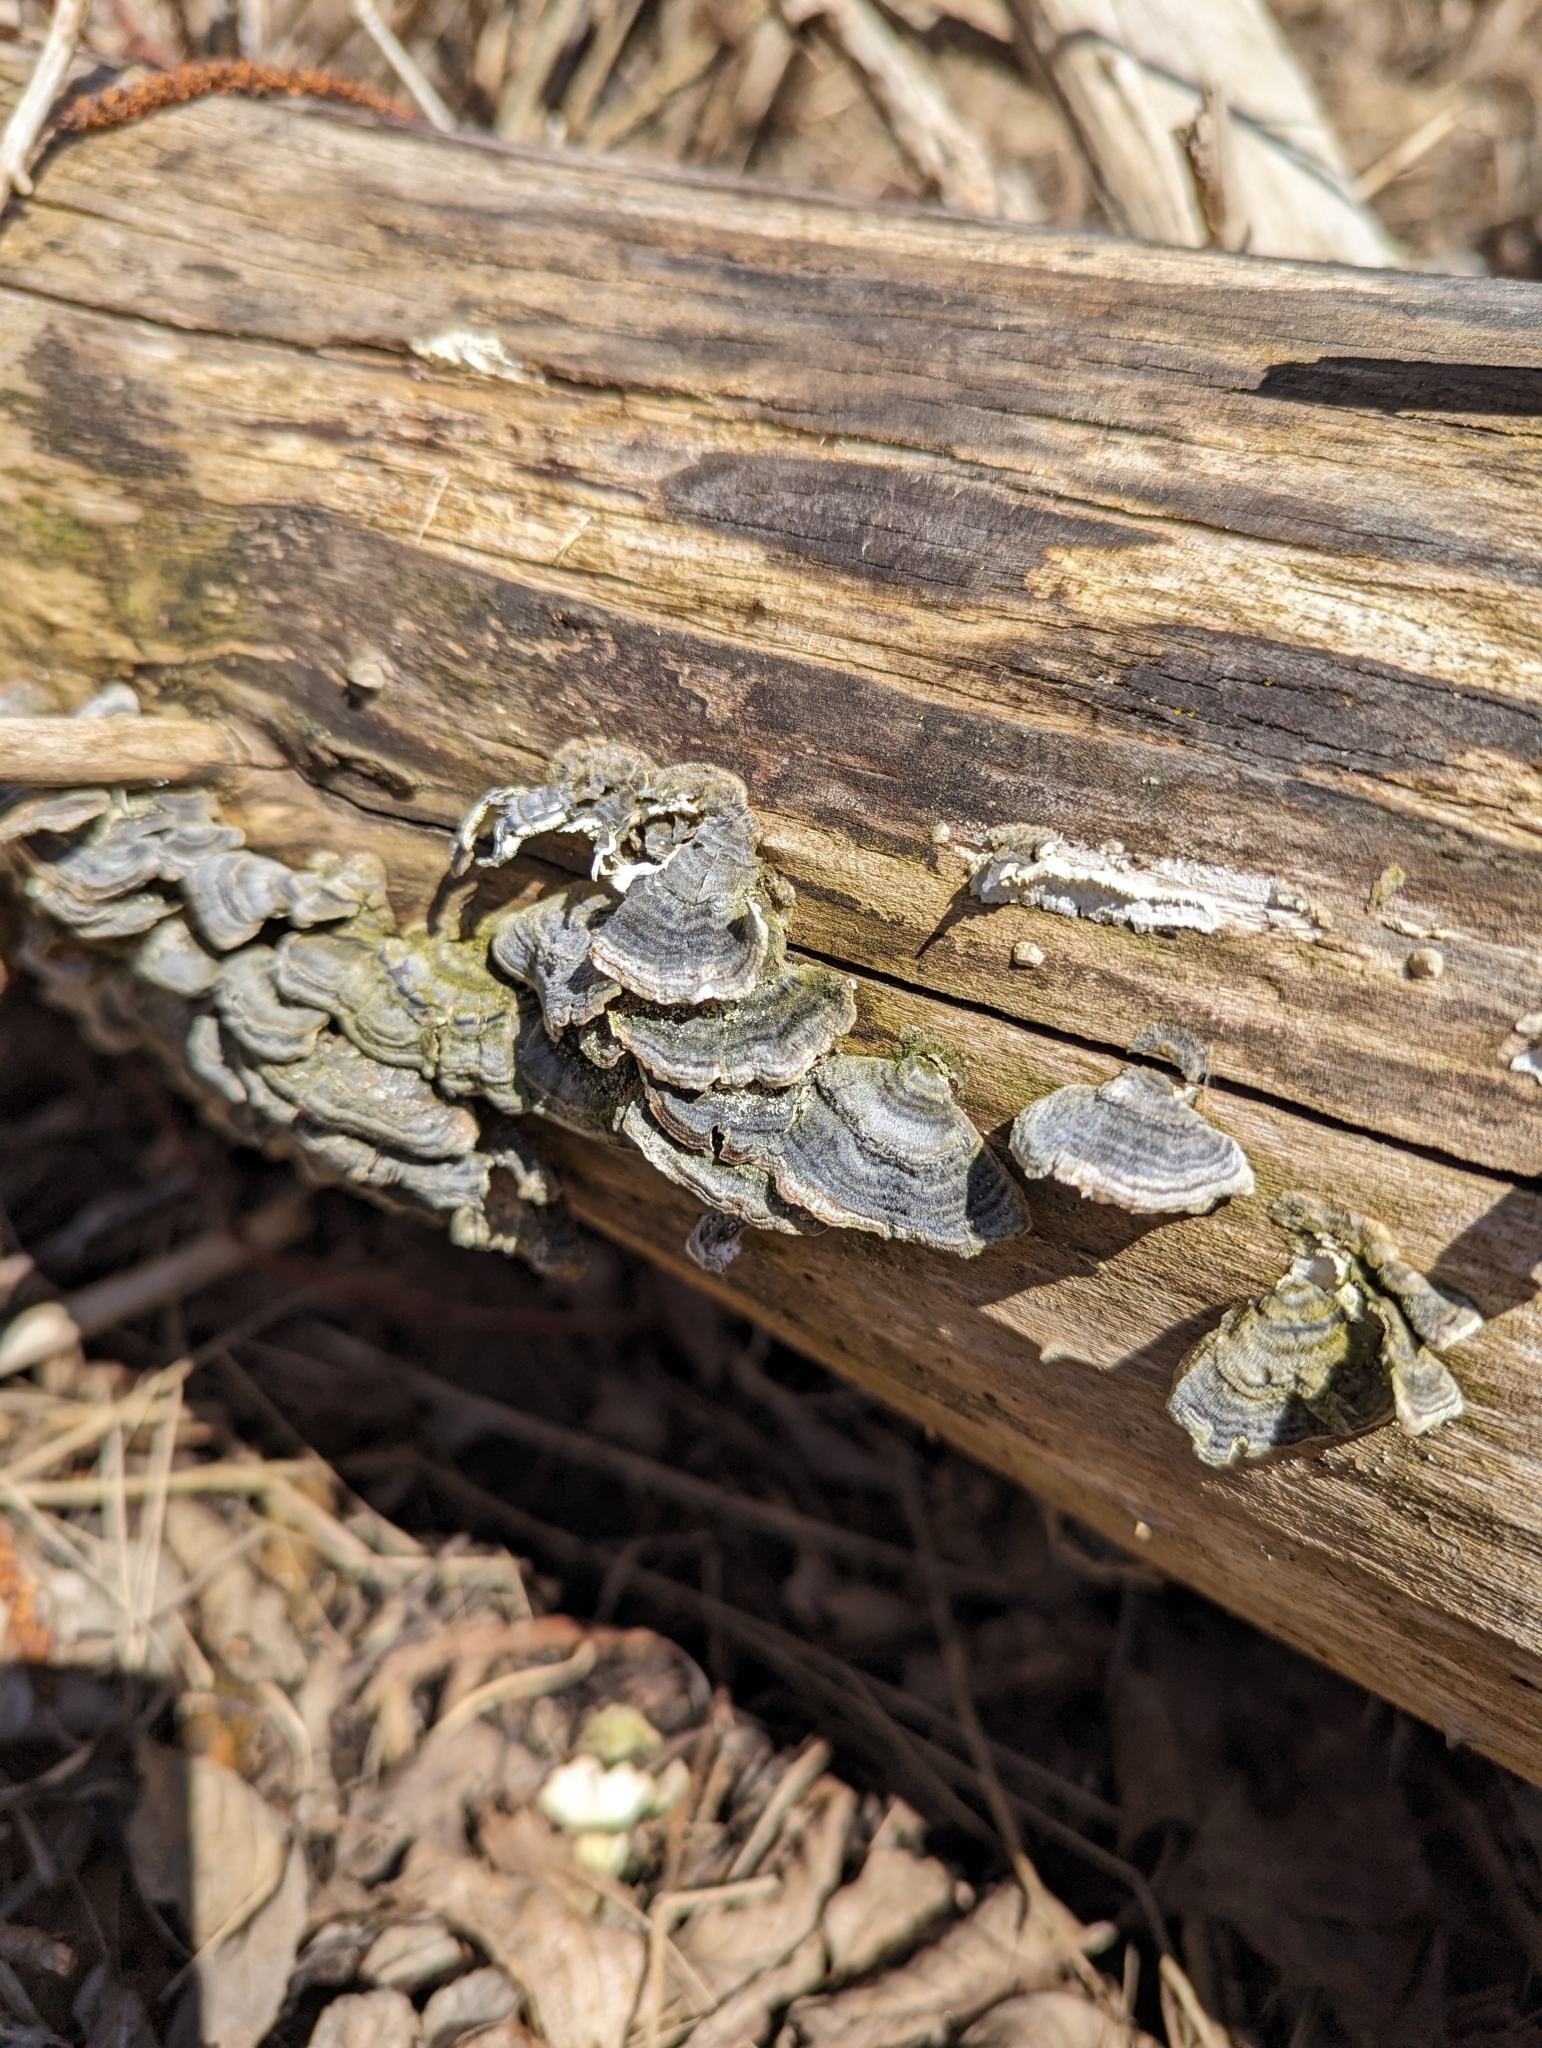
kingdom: Fungi
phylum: Basidiomycota
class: Agaricomycetes
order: Polyporales
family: Polyporaceae
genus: Trametes
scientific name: Trametes versicolor
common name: Turkeytail
